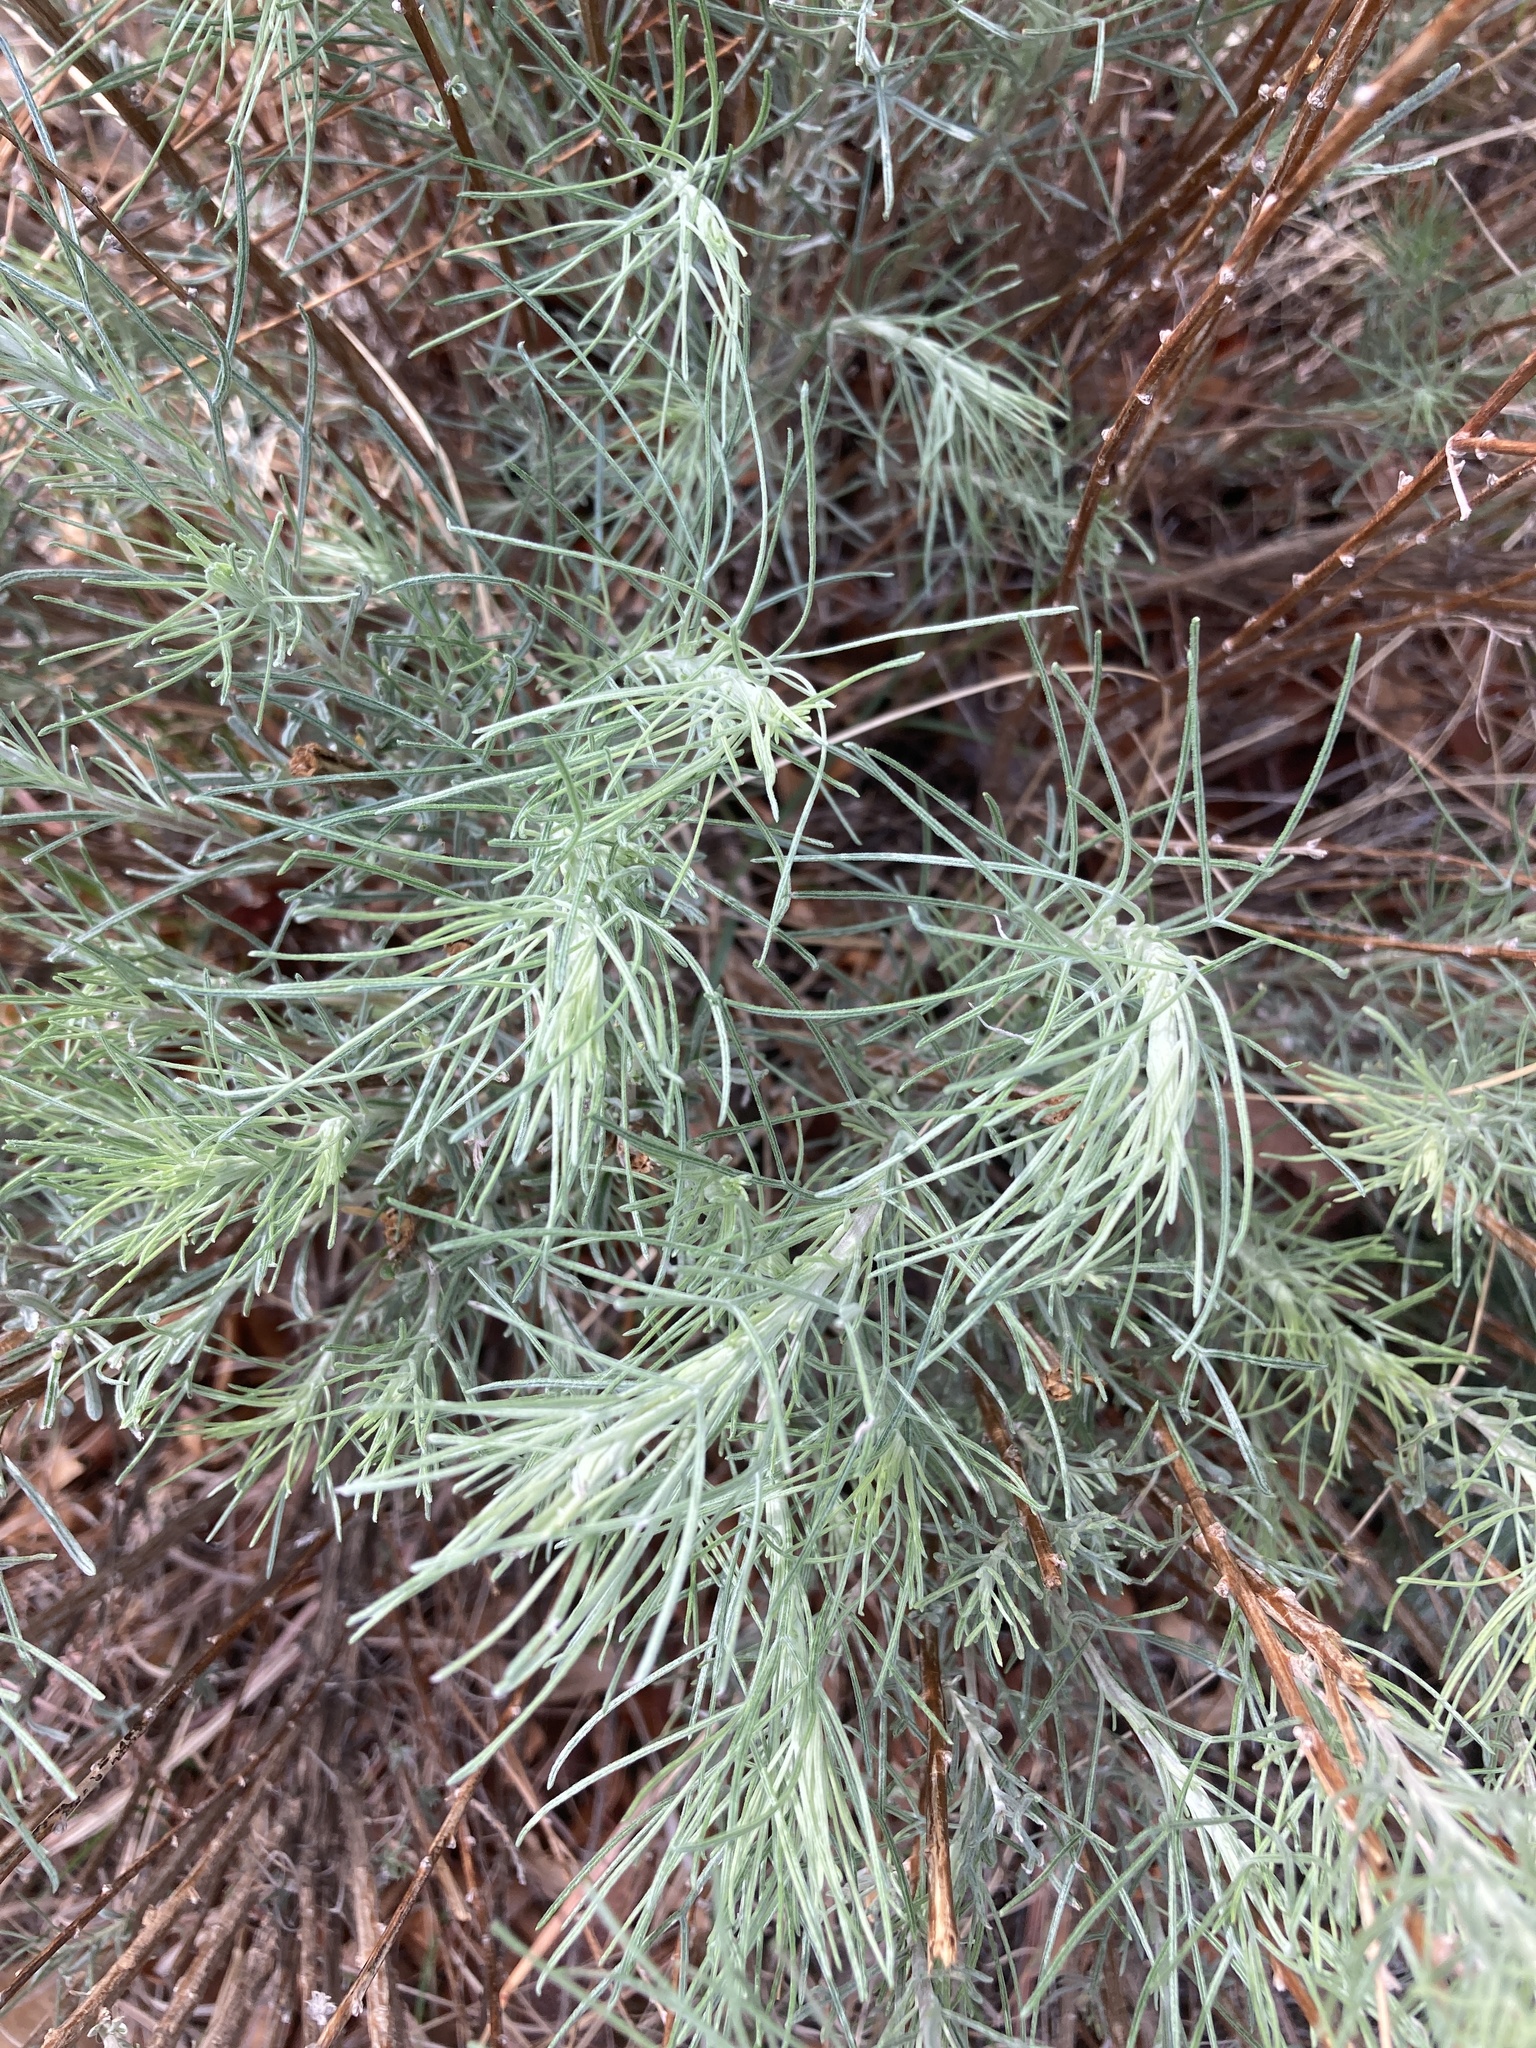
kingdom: Plantae
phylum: Tracheophyta
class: Magnoliopsida
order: Asterales
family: Asteraceae
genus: Artemisia
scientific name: Artemisia filifolia
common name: Sand-sage
